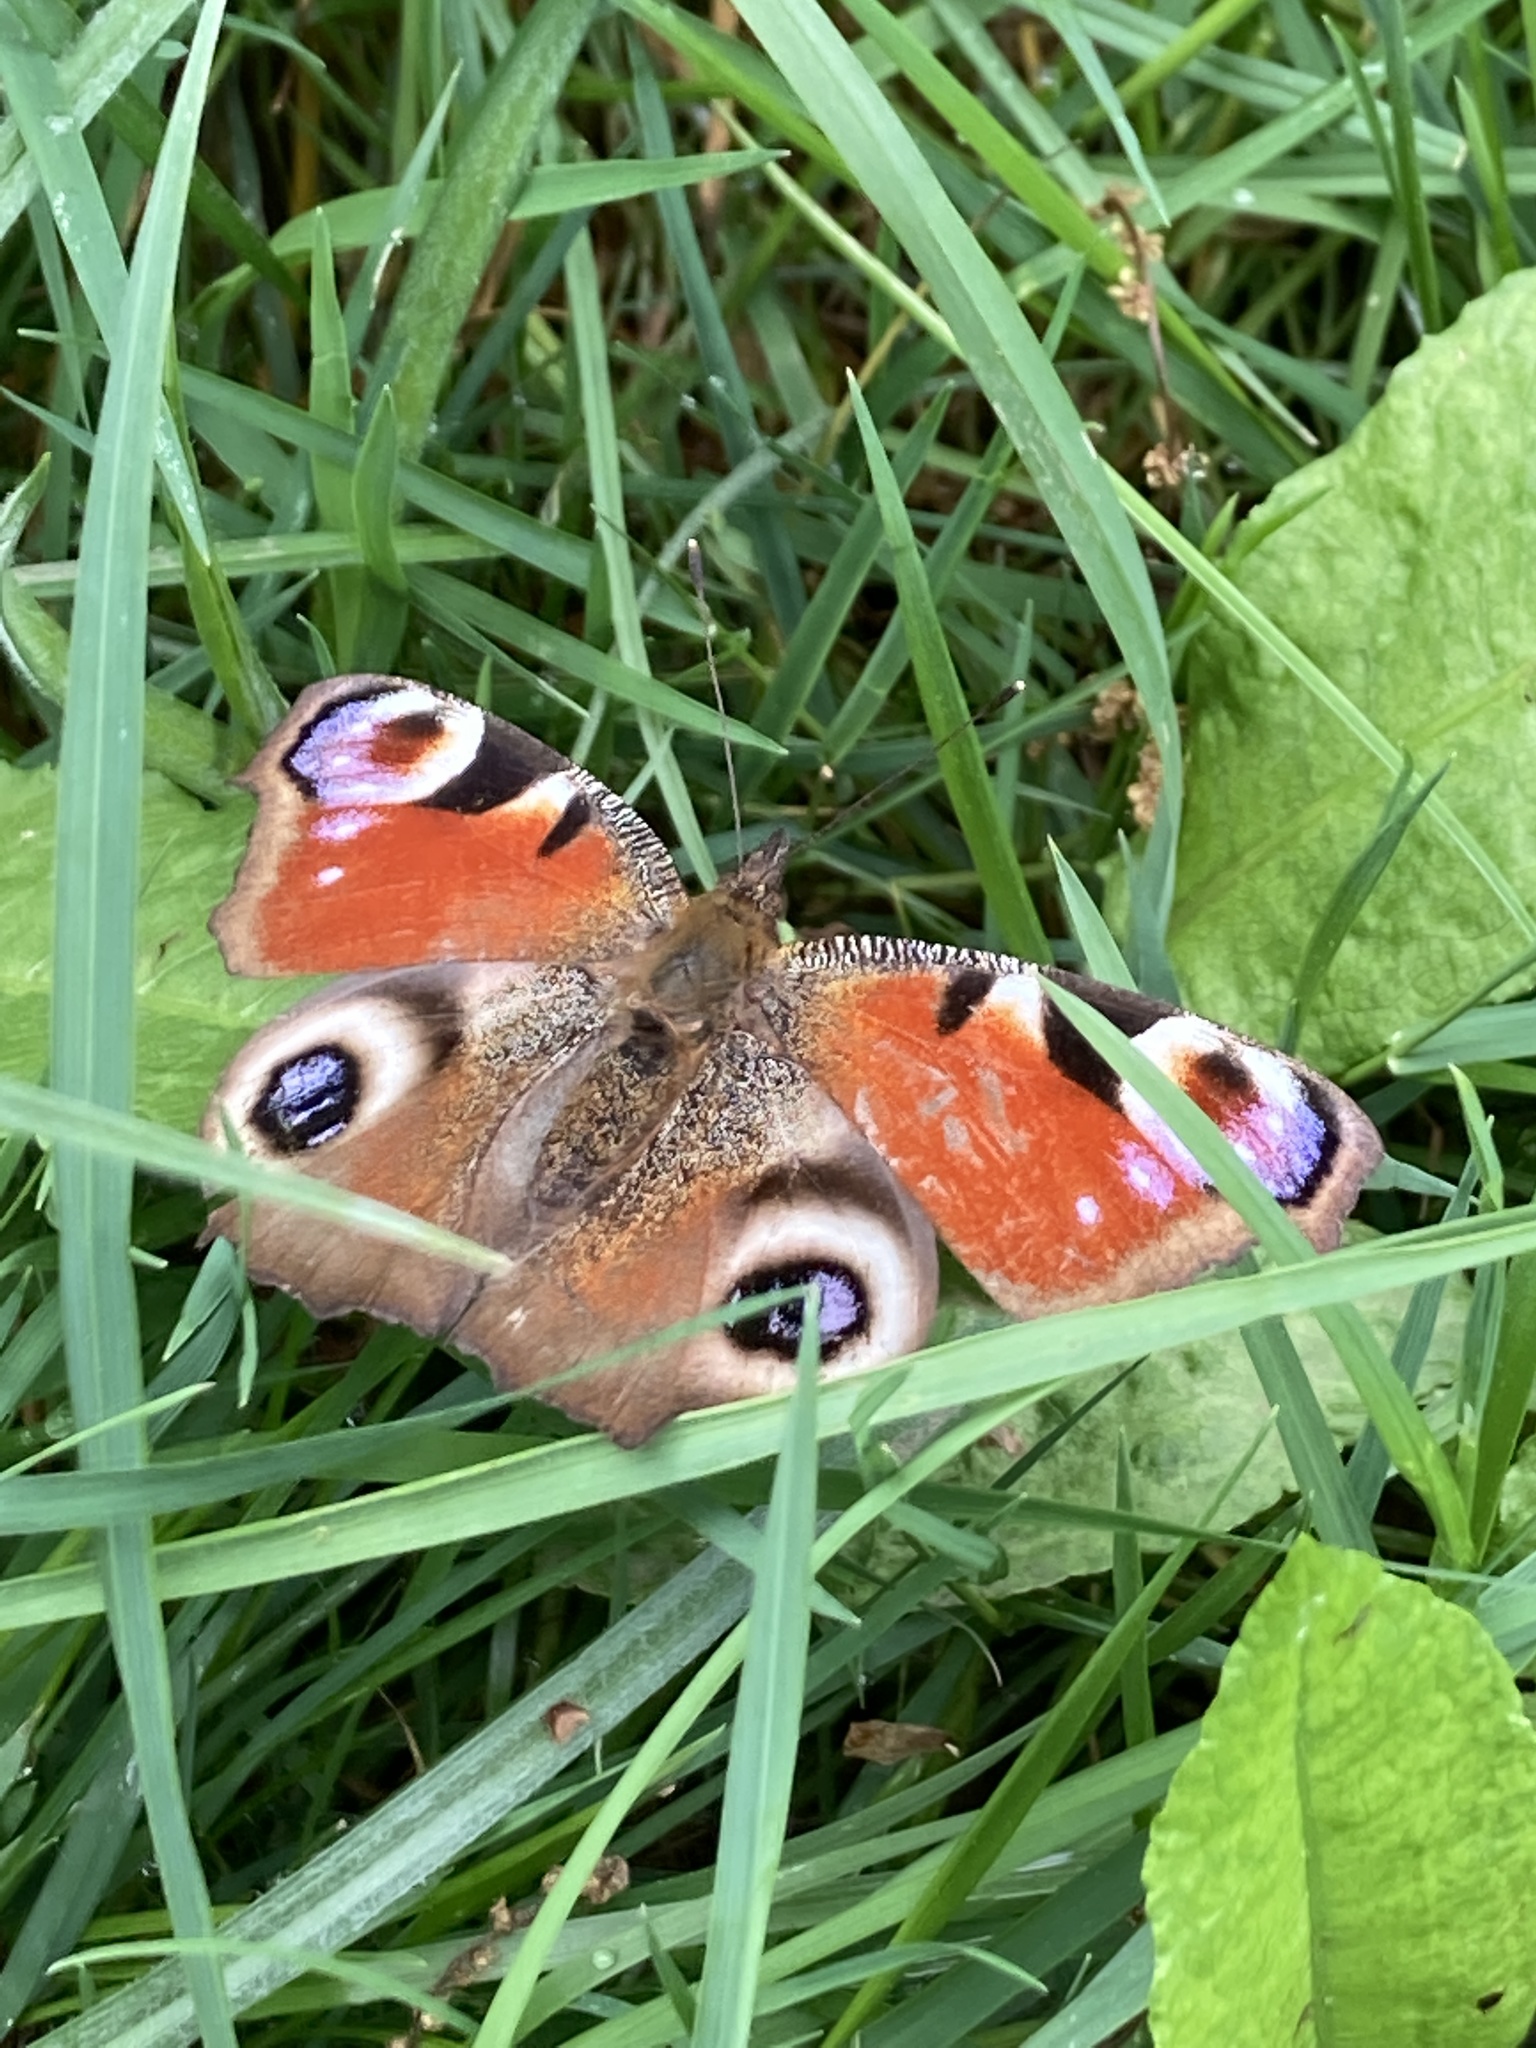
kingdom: Animalia
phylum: Arthropoda
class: Insecta
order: Lepidoptera
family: Nymphalidae
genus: Aglais
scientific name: Aglais io
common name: Peacock
